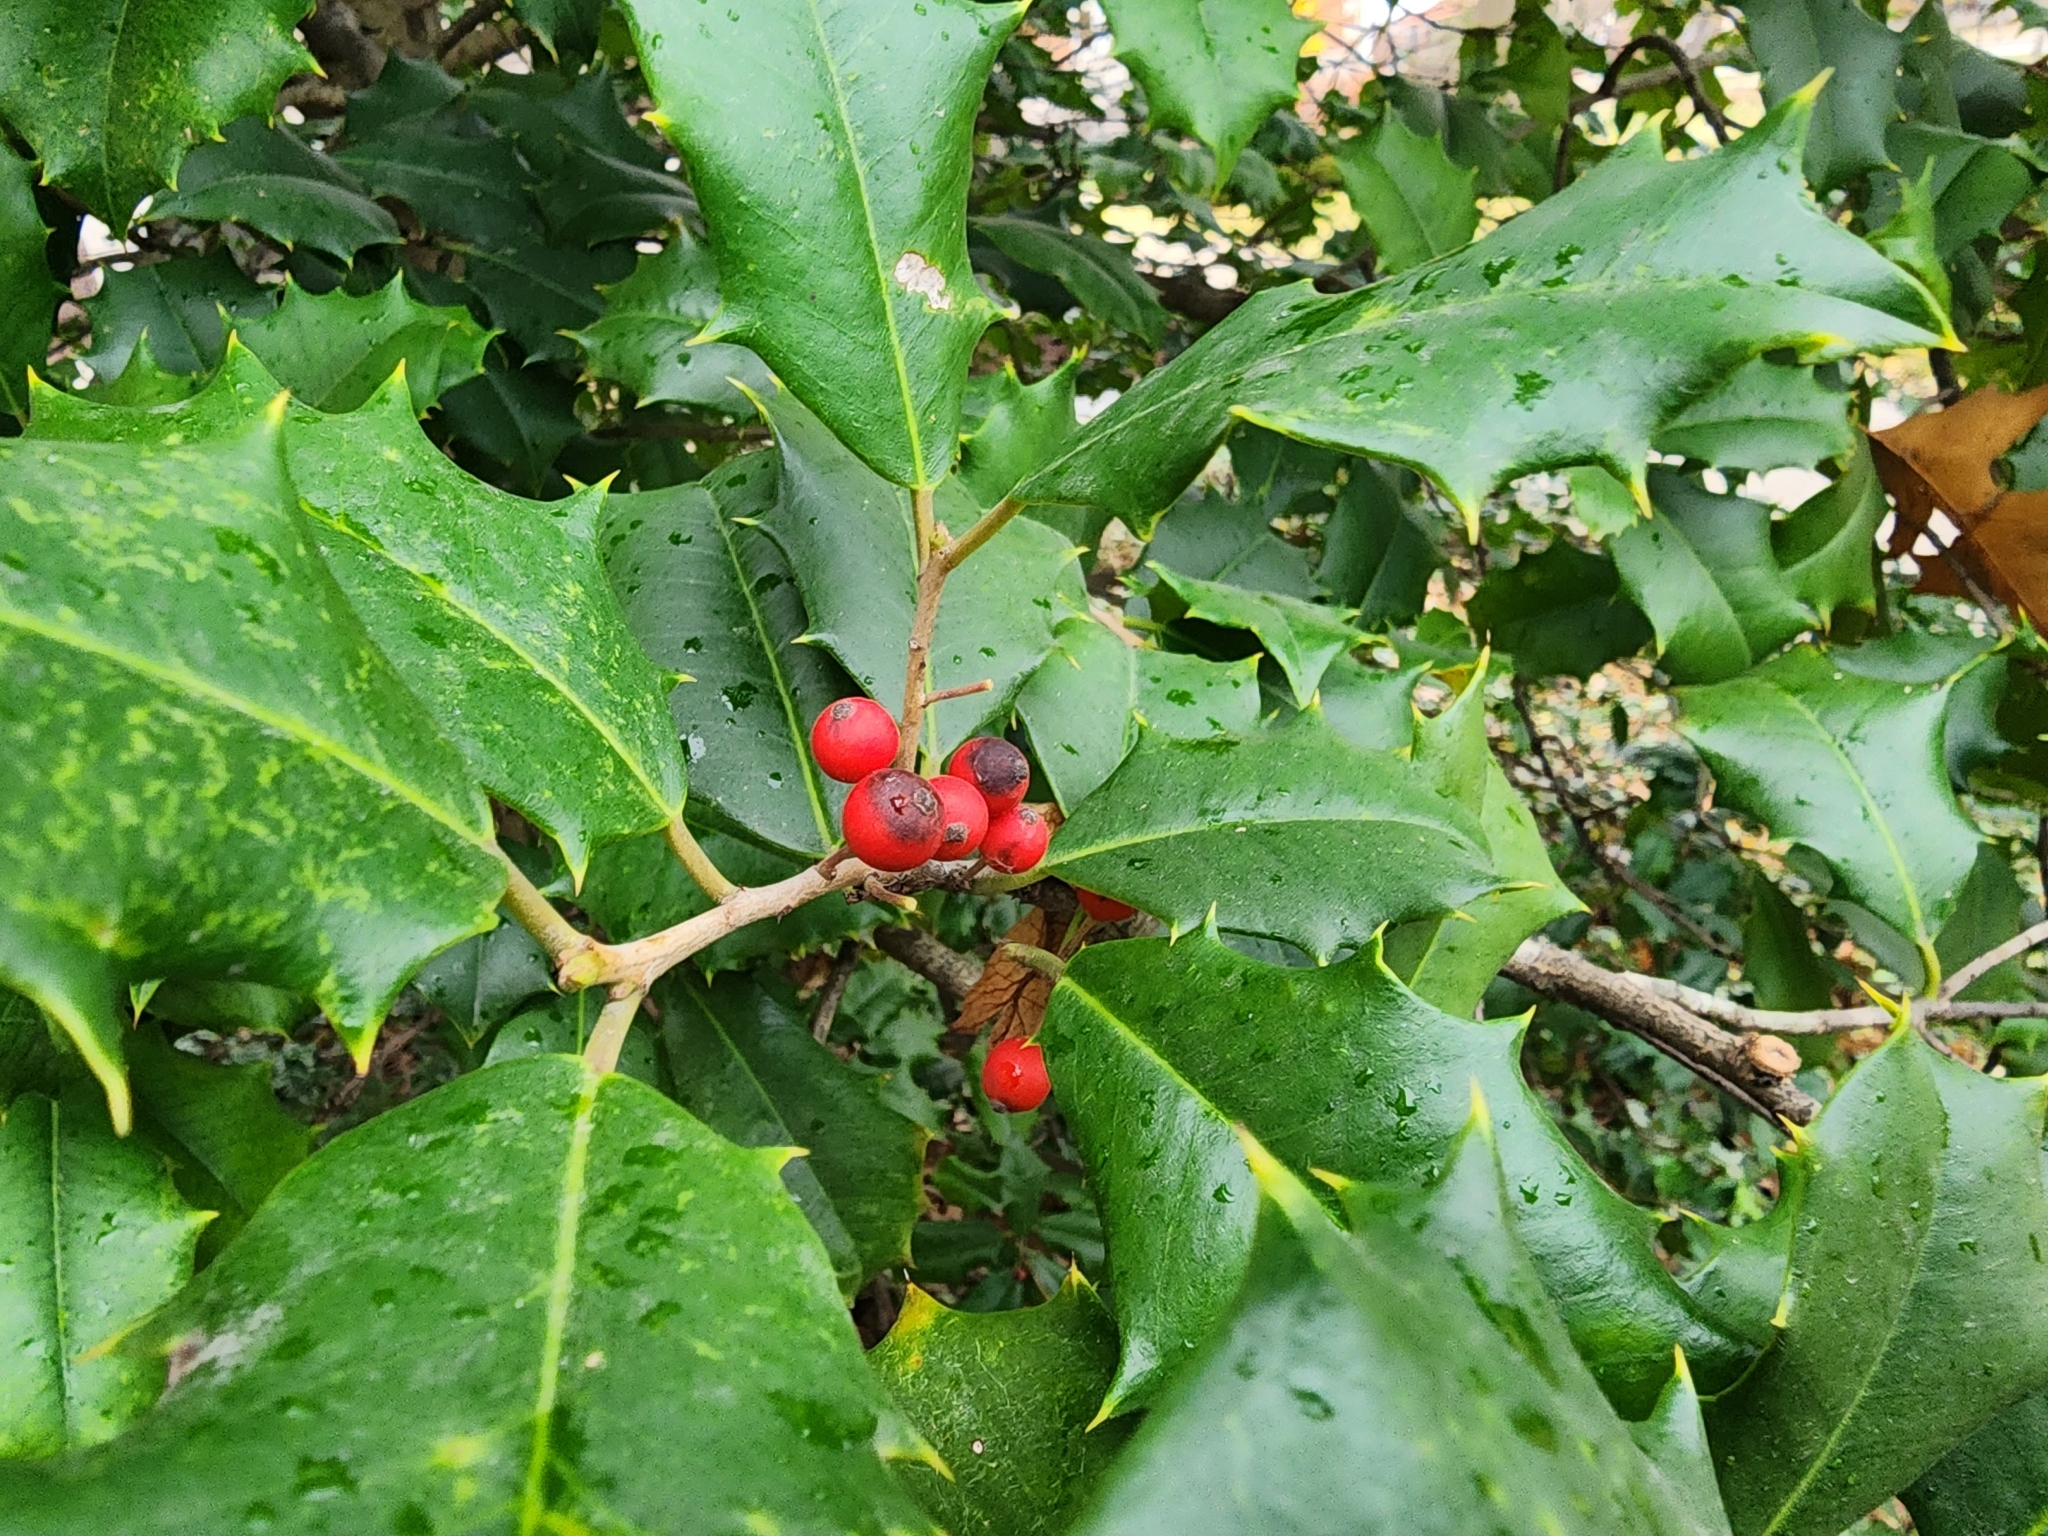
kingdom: Plantae
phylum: Tracheophyta
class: Magnoliopsida
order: Aquifoliales
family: Aquifoliaceae
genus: Ilex
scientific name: Ilex opaca
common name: American holly
